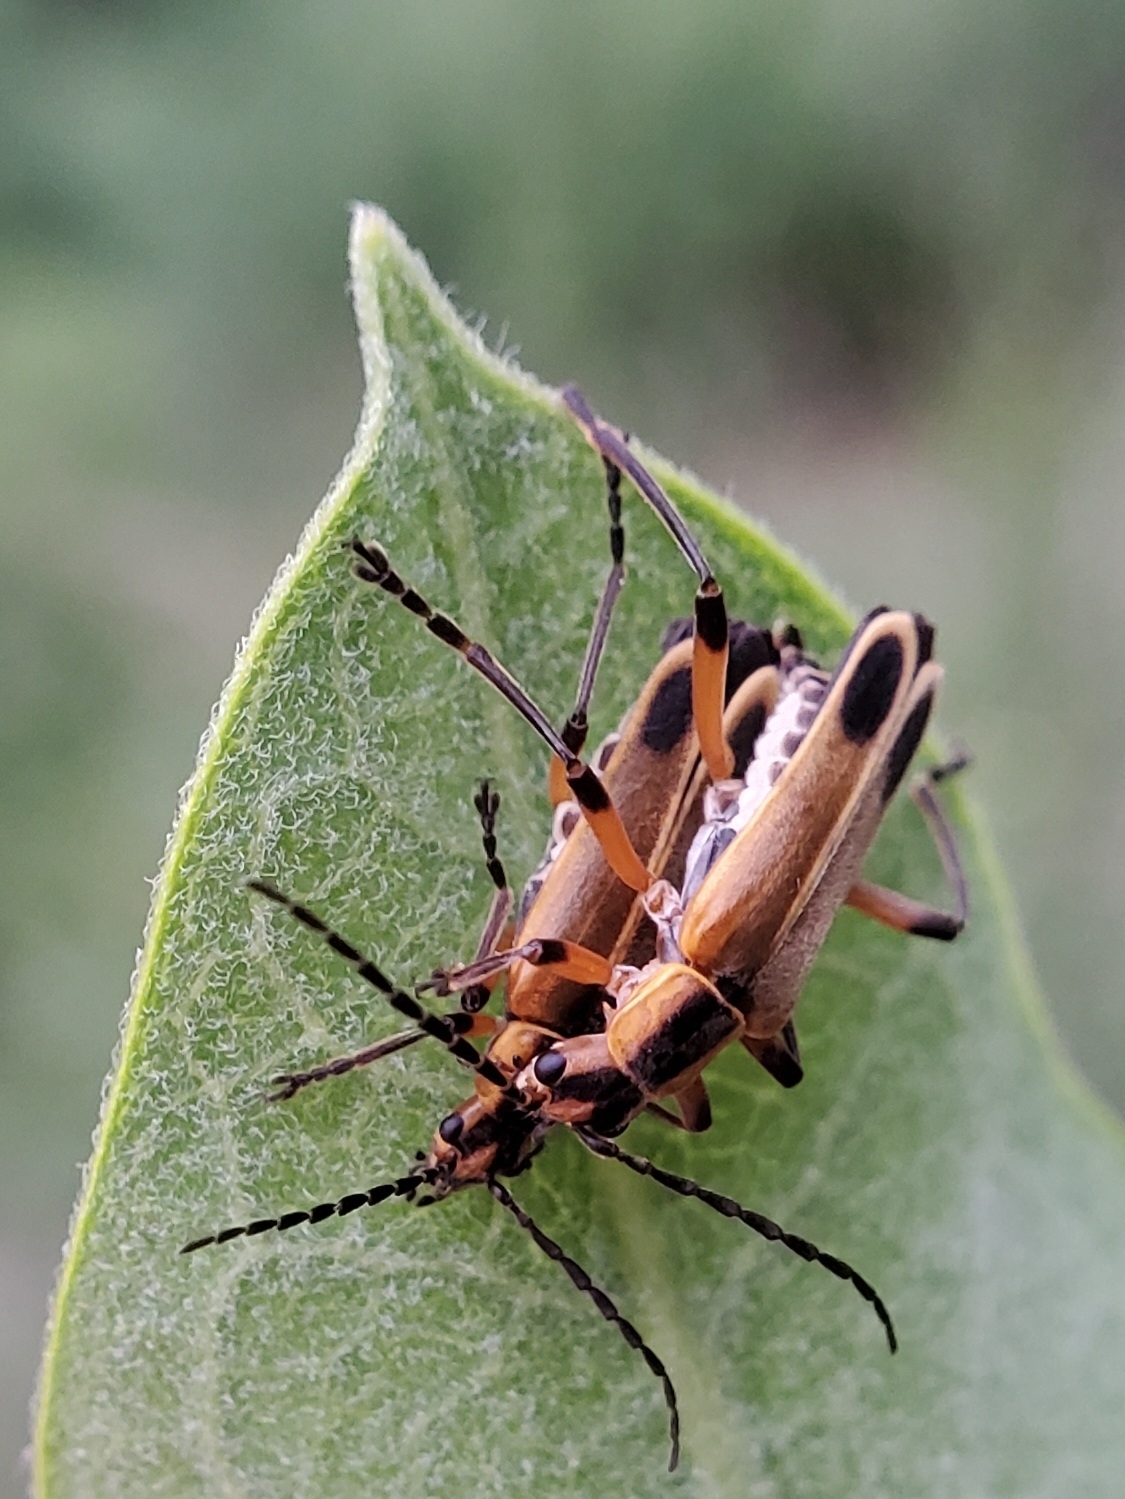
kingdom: Animalia
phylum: Arthropoda
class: Insecta
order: Coleoptera
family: Cantharidae
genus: Chauliognathus
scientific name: Chauliognathus marginatus
